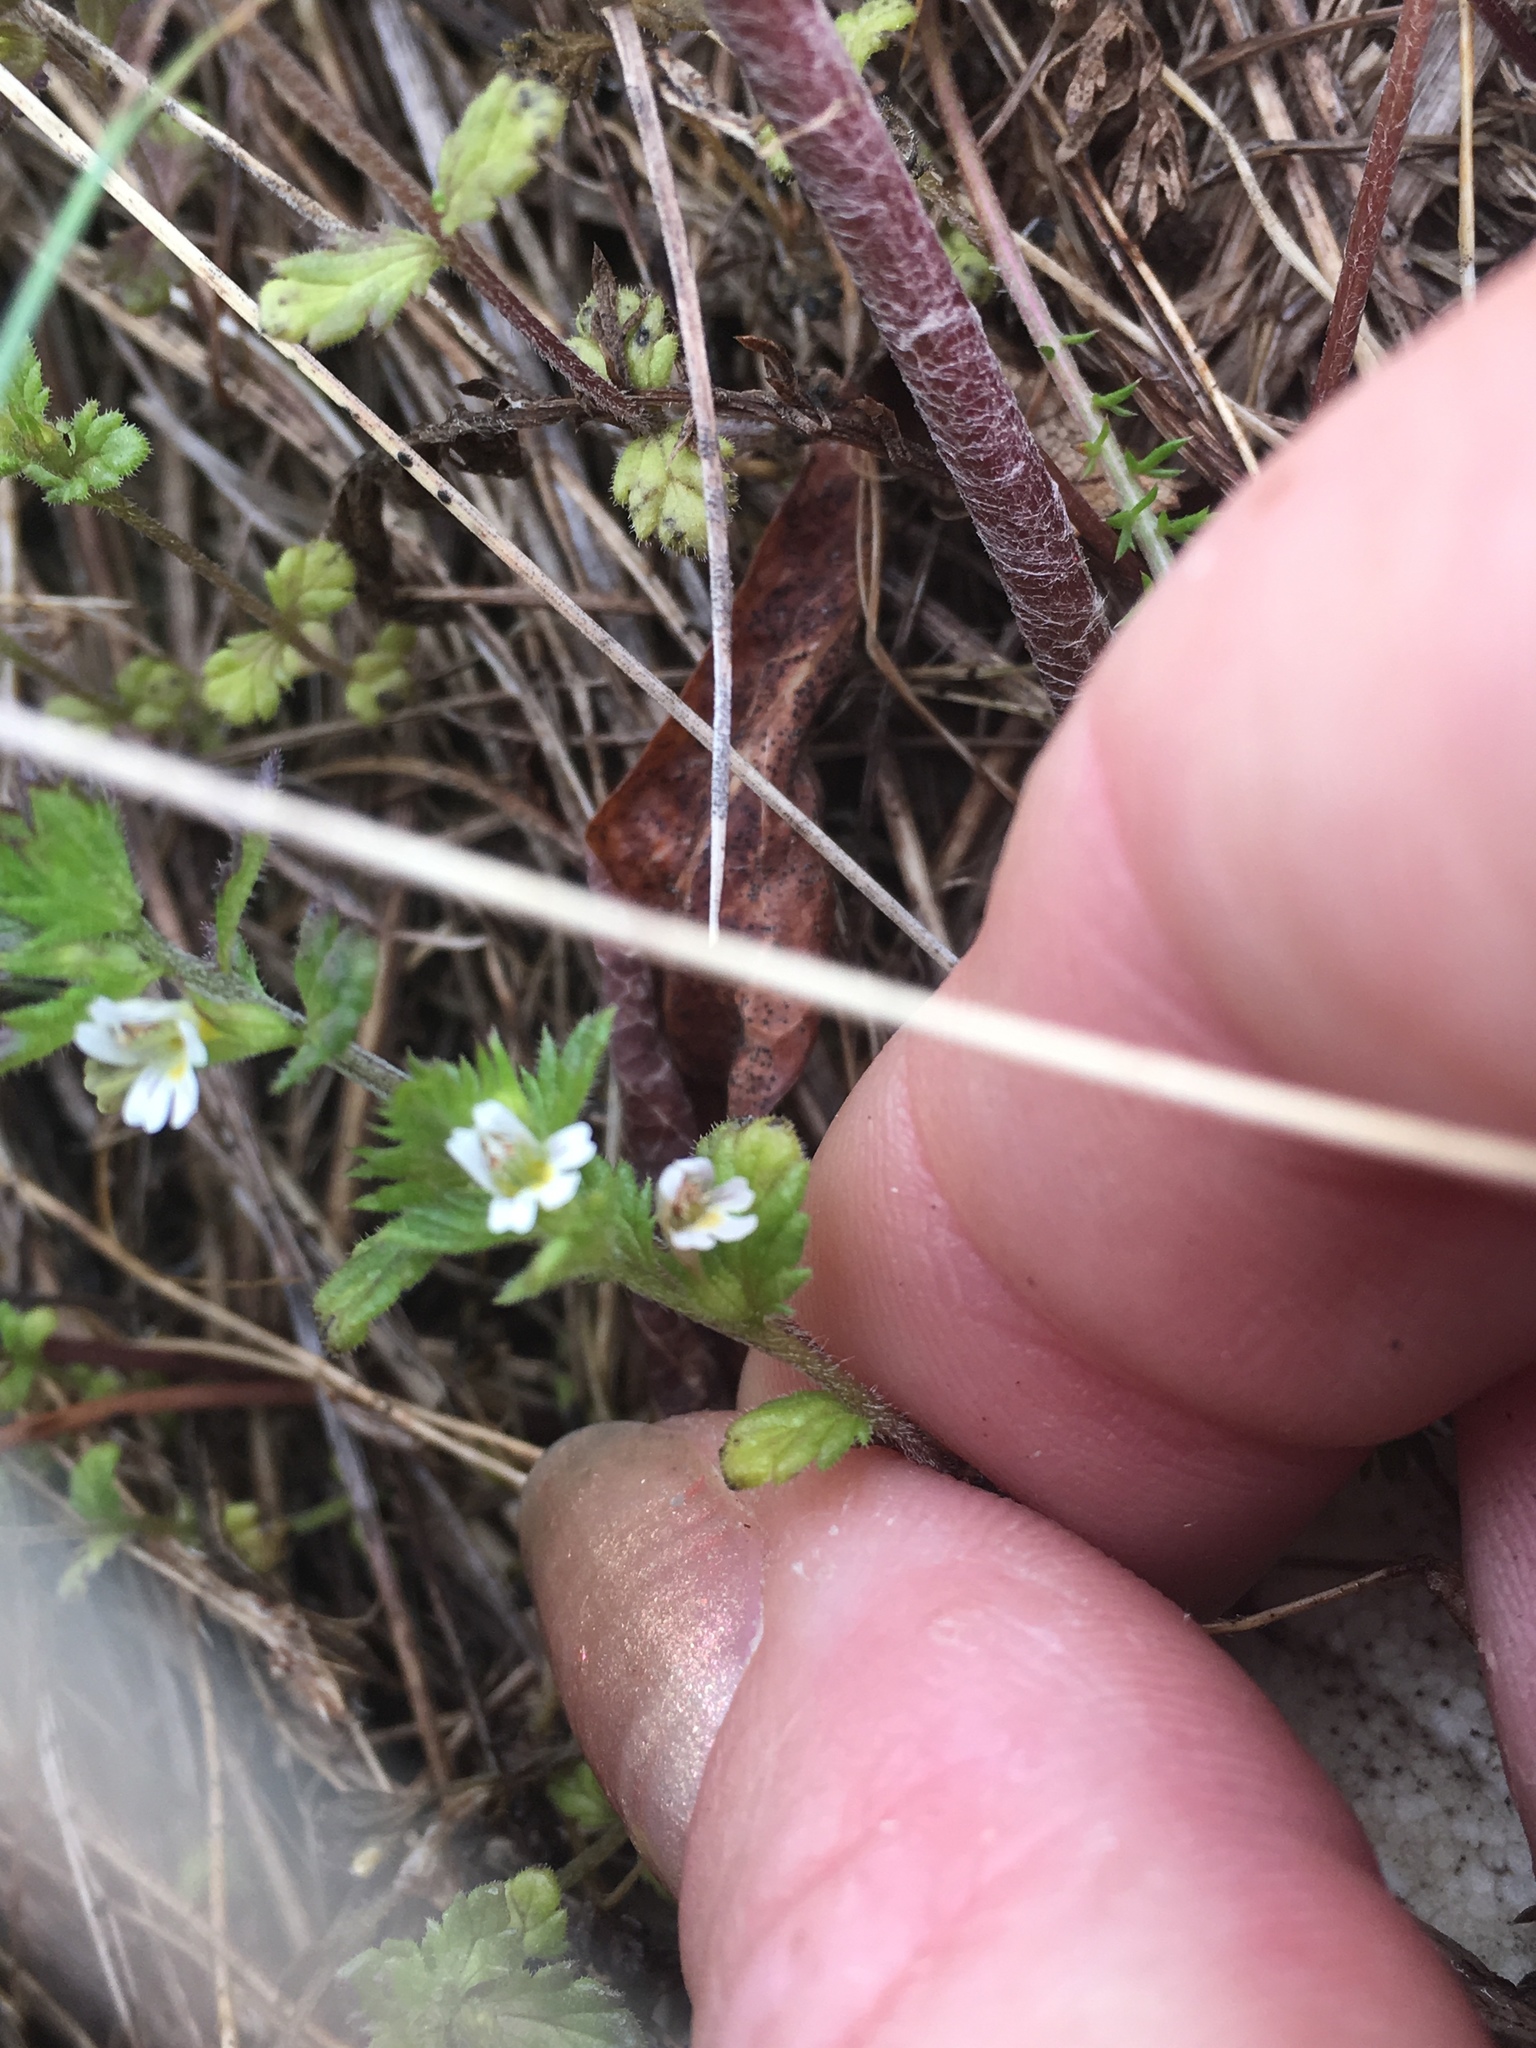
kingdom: Plantae
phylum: Tracheophyta
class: Magnoliopsida
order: Lamiales
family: Orobanchaceae
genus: Euphrasia
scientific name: Euphrasia frigida
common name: An eyebright
